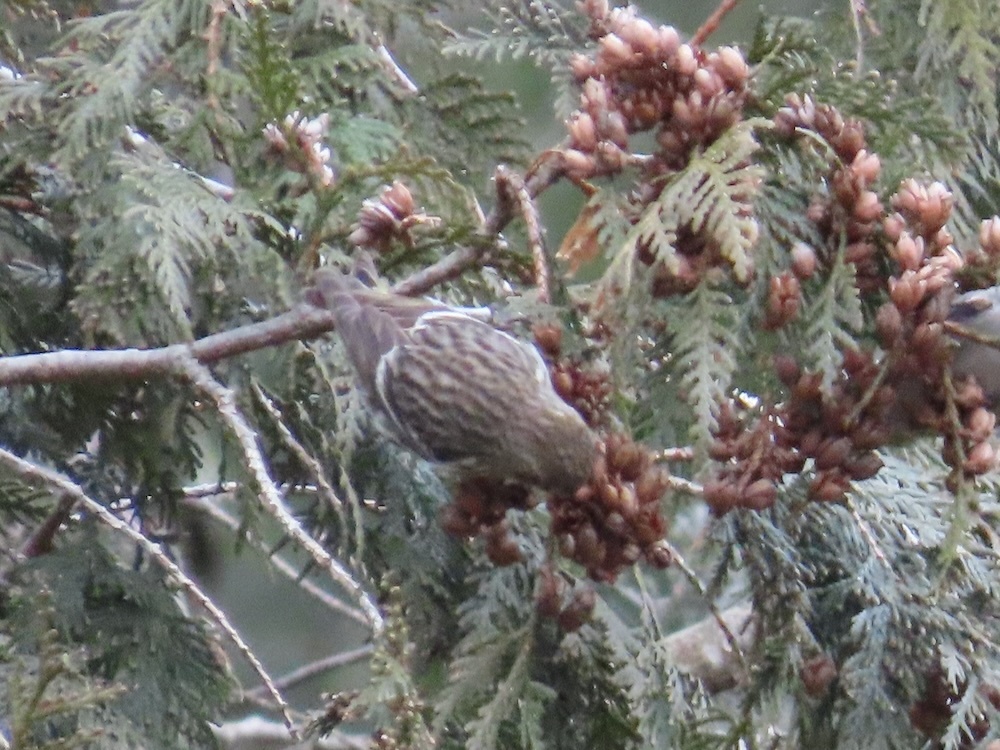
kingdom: Animalia
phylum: Chordata
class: Aves
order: Passeriformes
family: Fringillidae
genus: Spinus
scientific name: Spinus pinus
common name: Pine siskin
